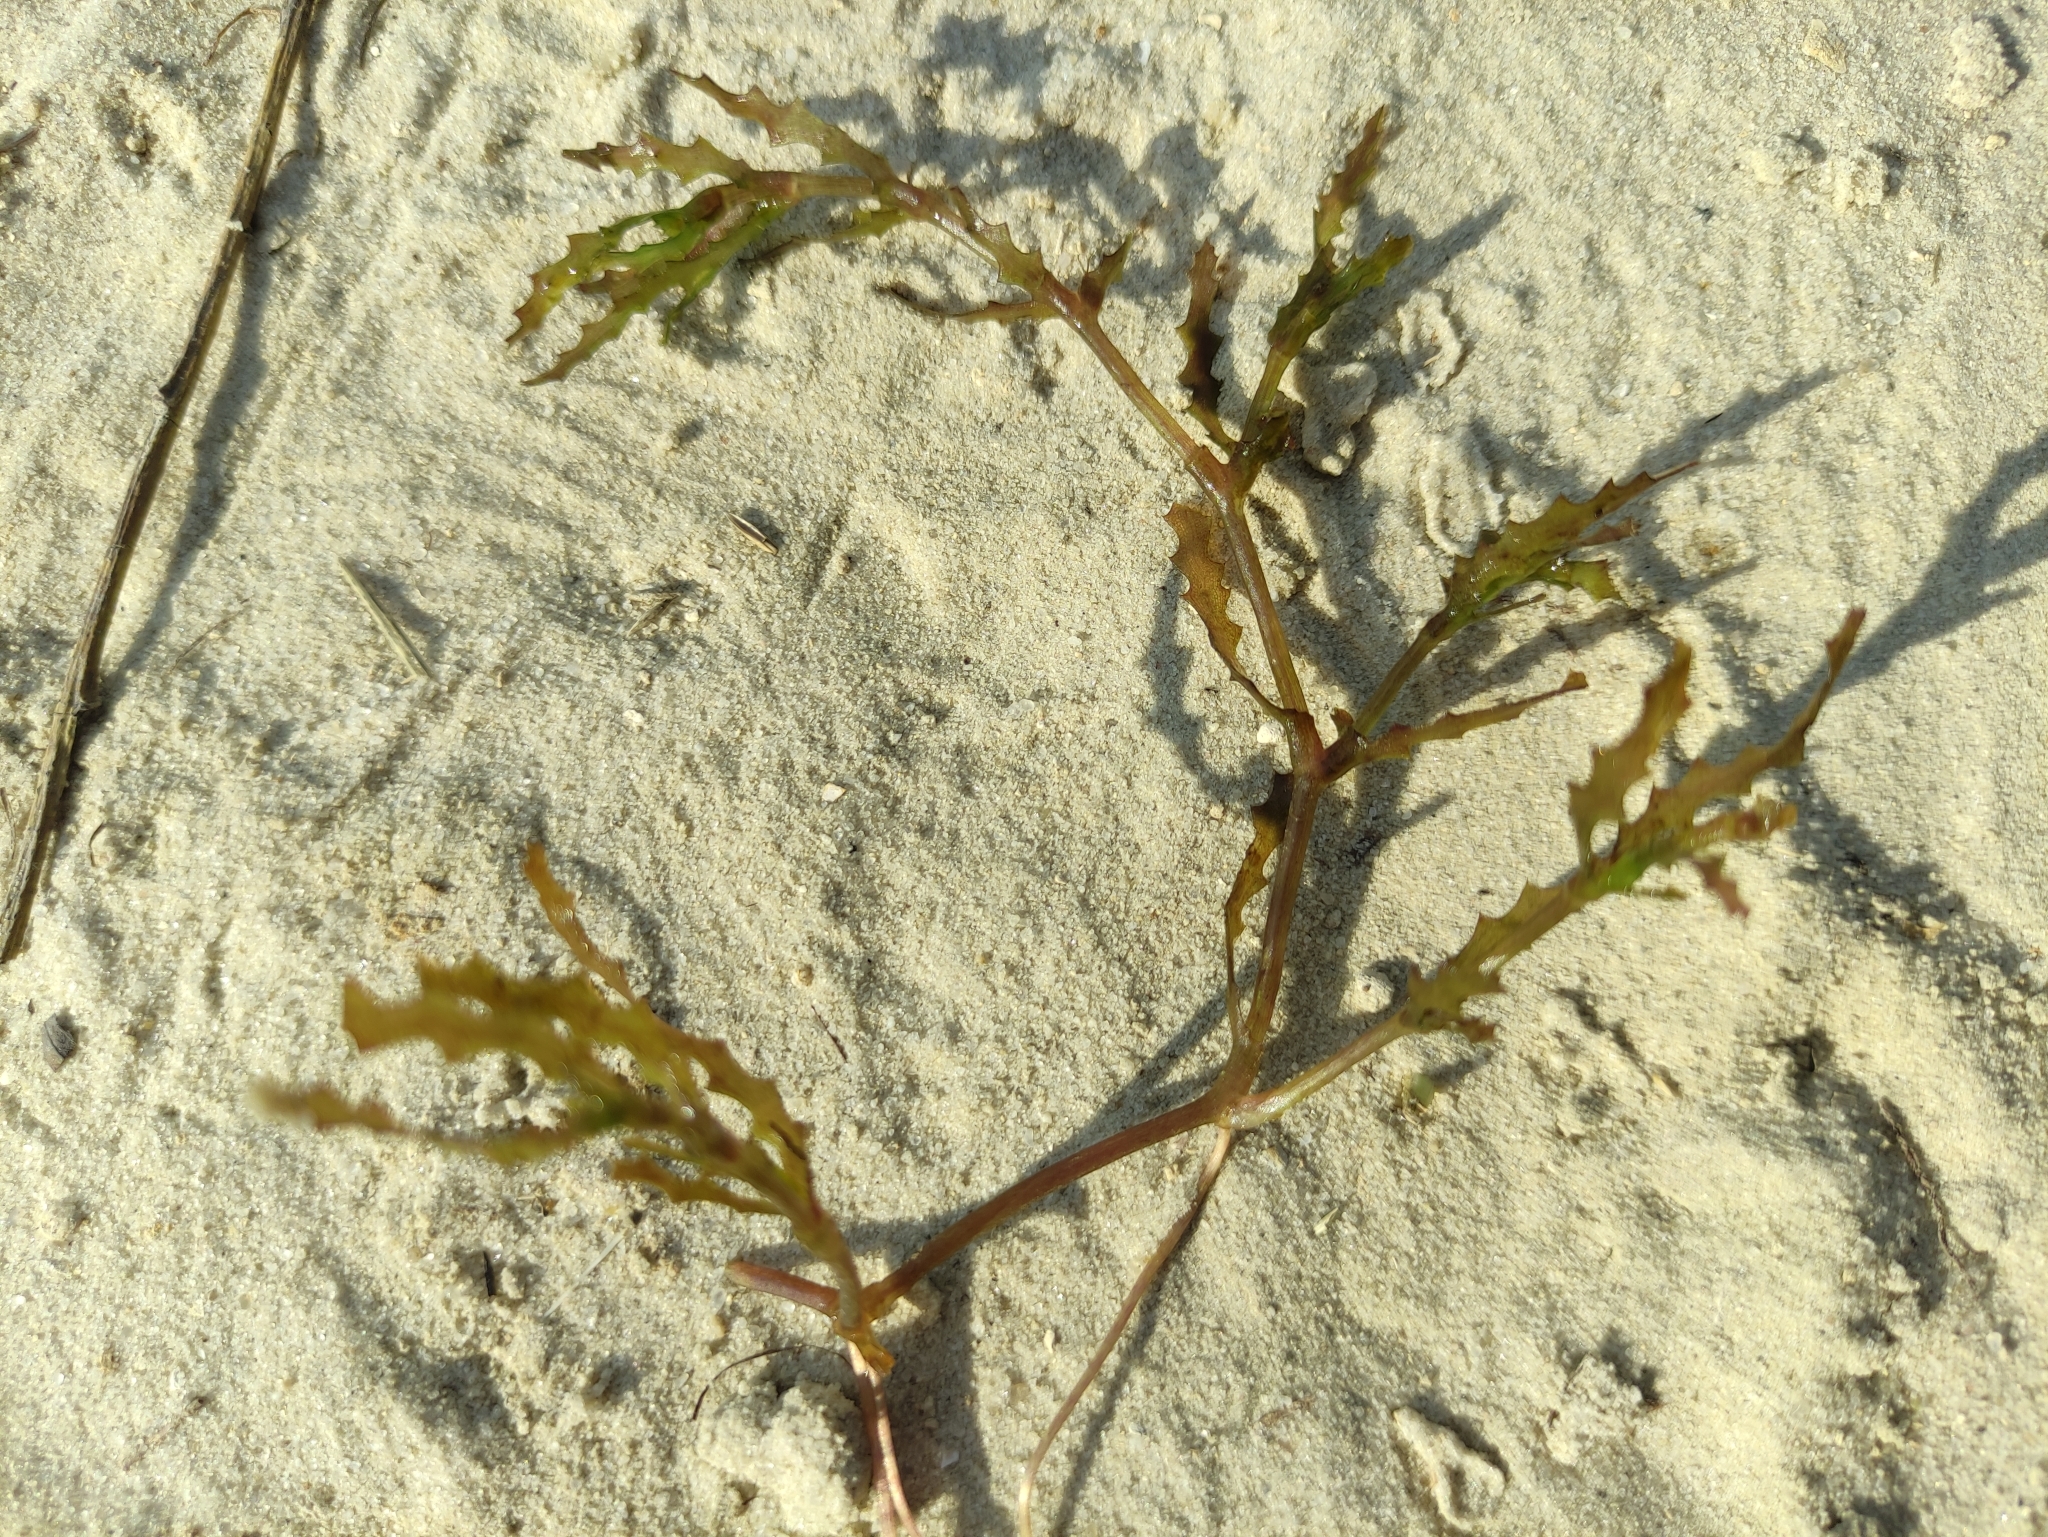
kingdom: Plantae
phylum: Tracheophyta
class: Liliopsida
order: Alismatales
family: Hydrocharitaceae
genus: Najas
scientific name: Najas marina
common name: Holly-leaved naiad
